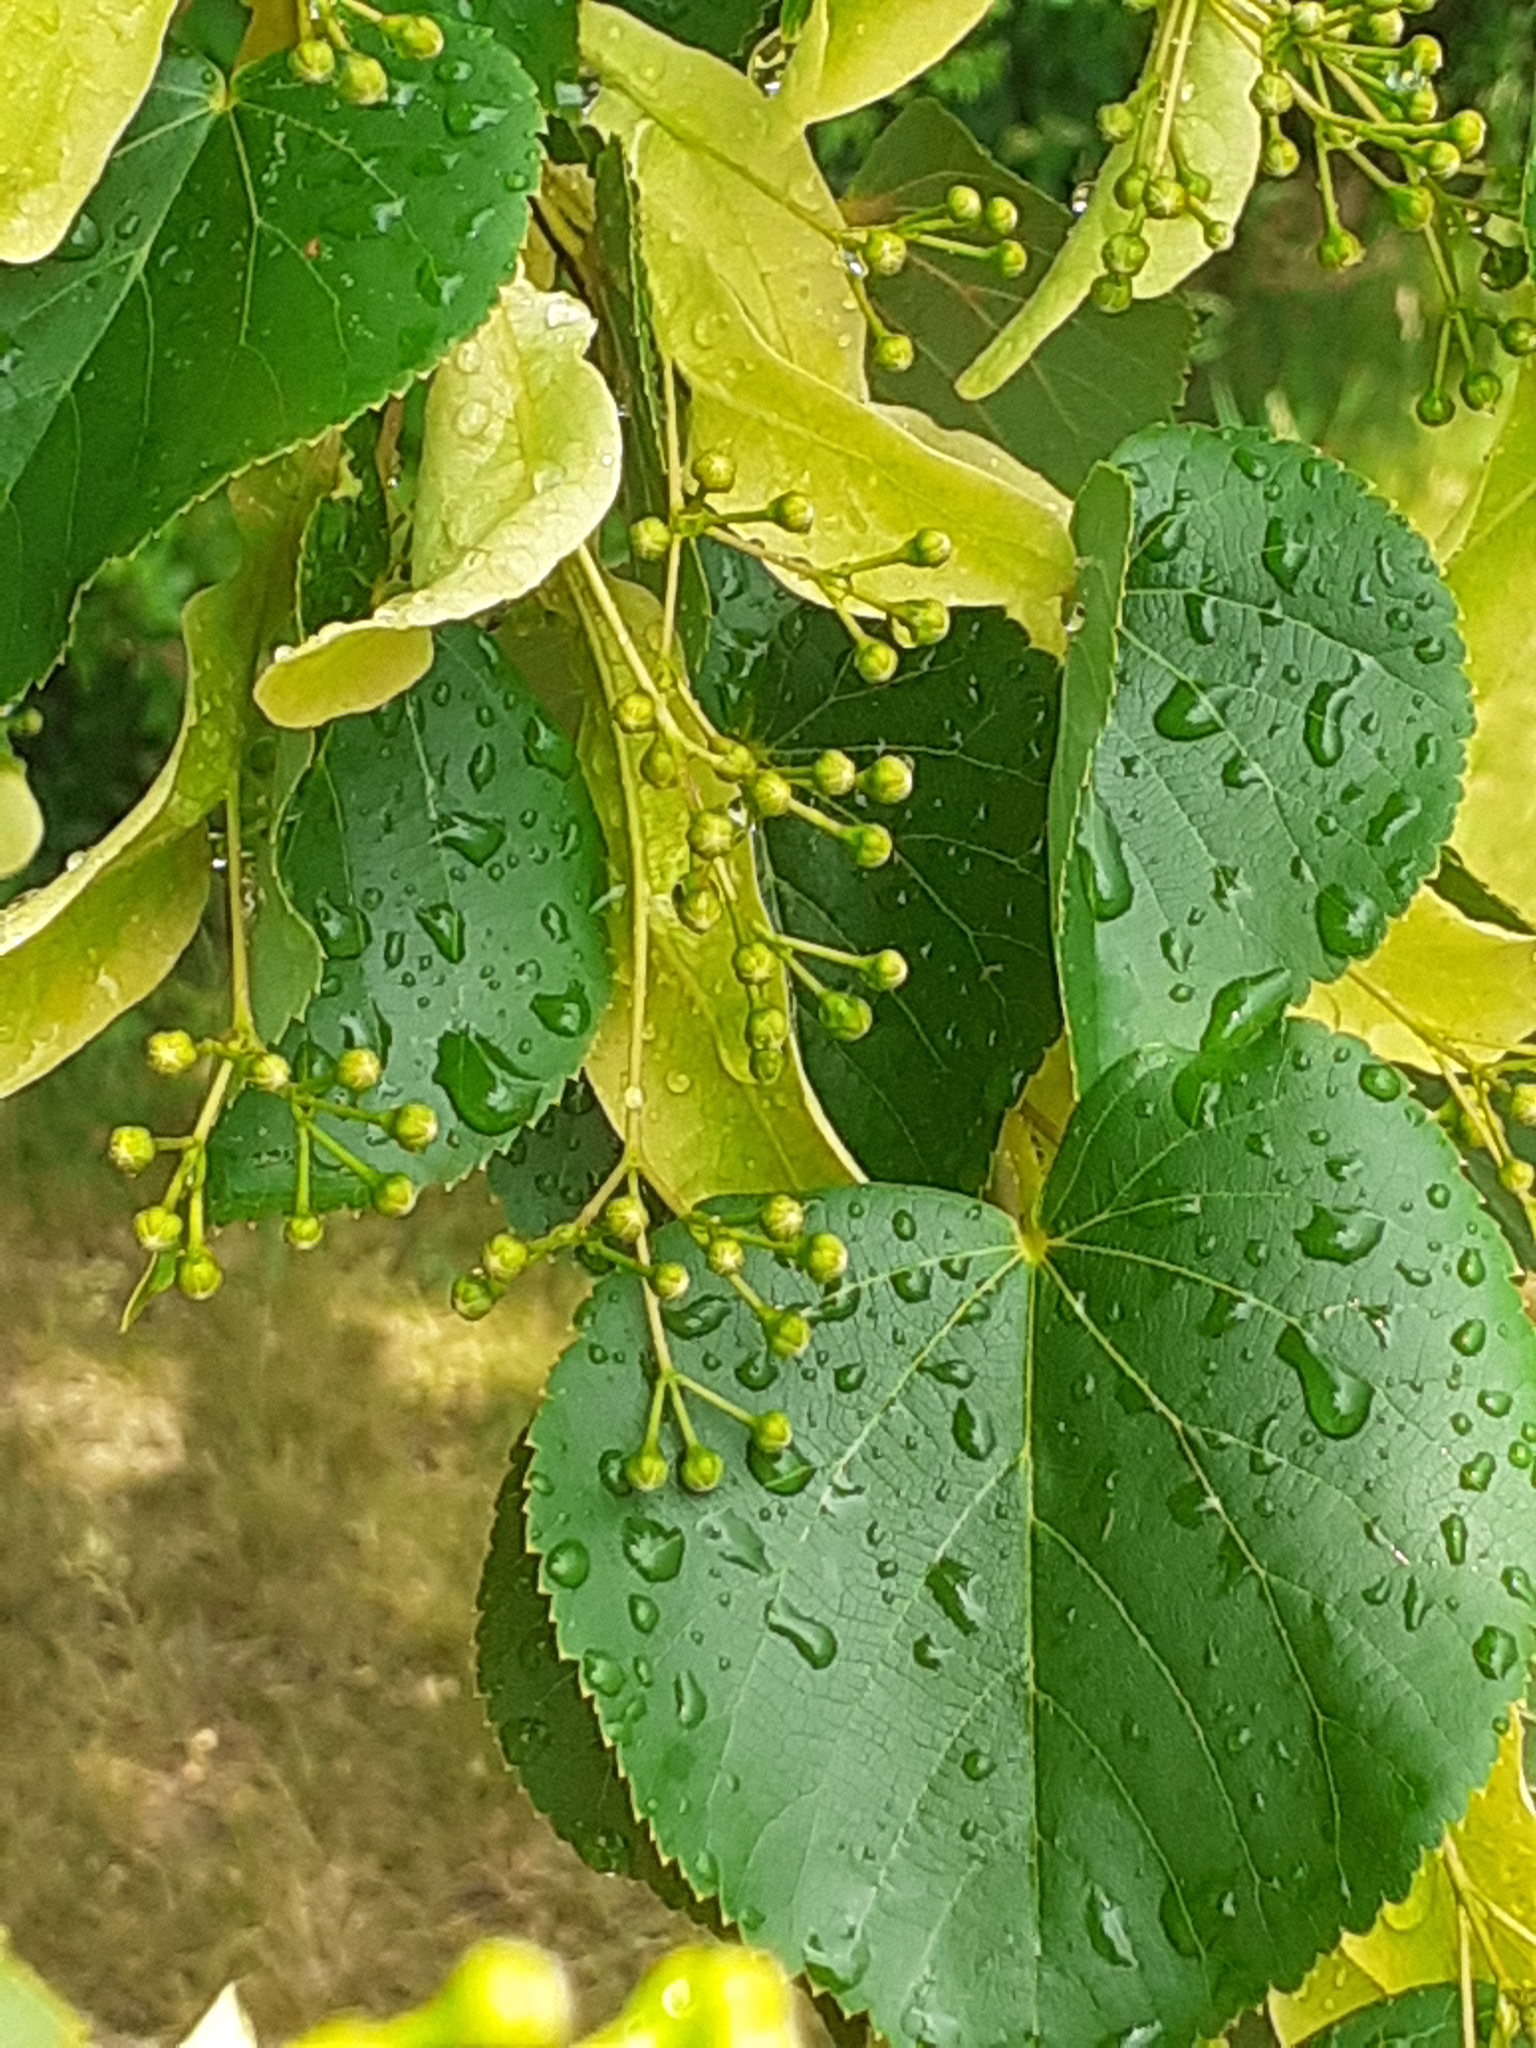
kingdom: Plantae
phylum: Tracheophyta
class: Magnoliopsida
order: Malvales
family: Malvaceae
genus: Tilia
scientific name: Tilia cordata
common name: Small-leaved lime
